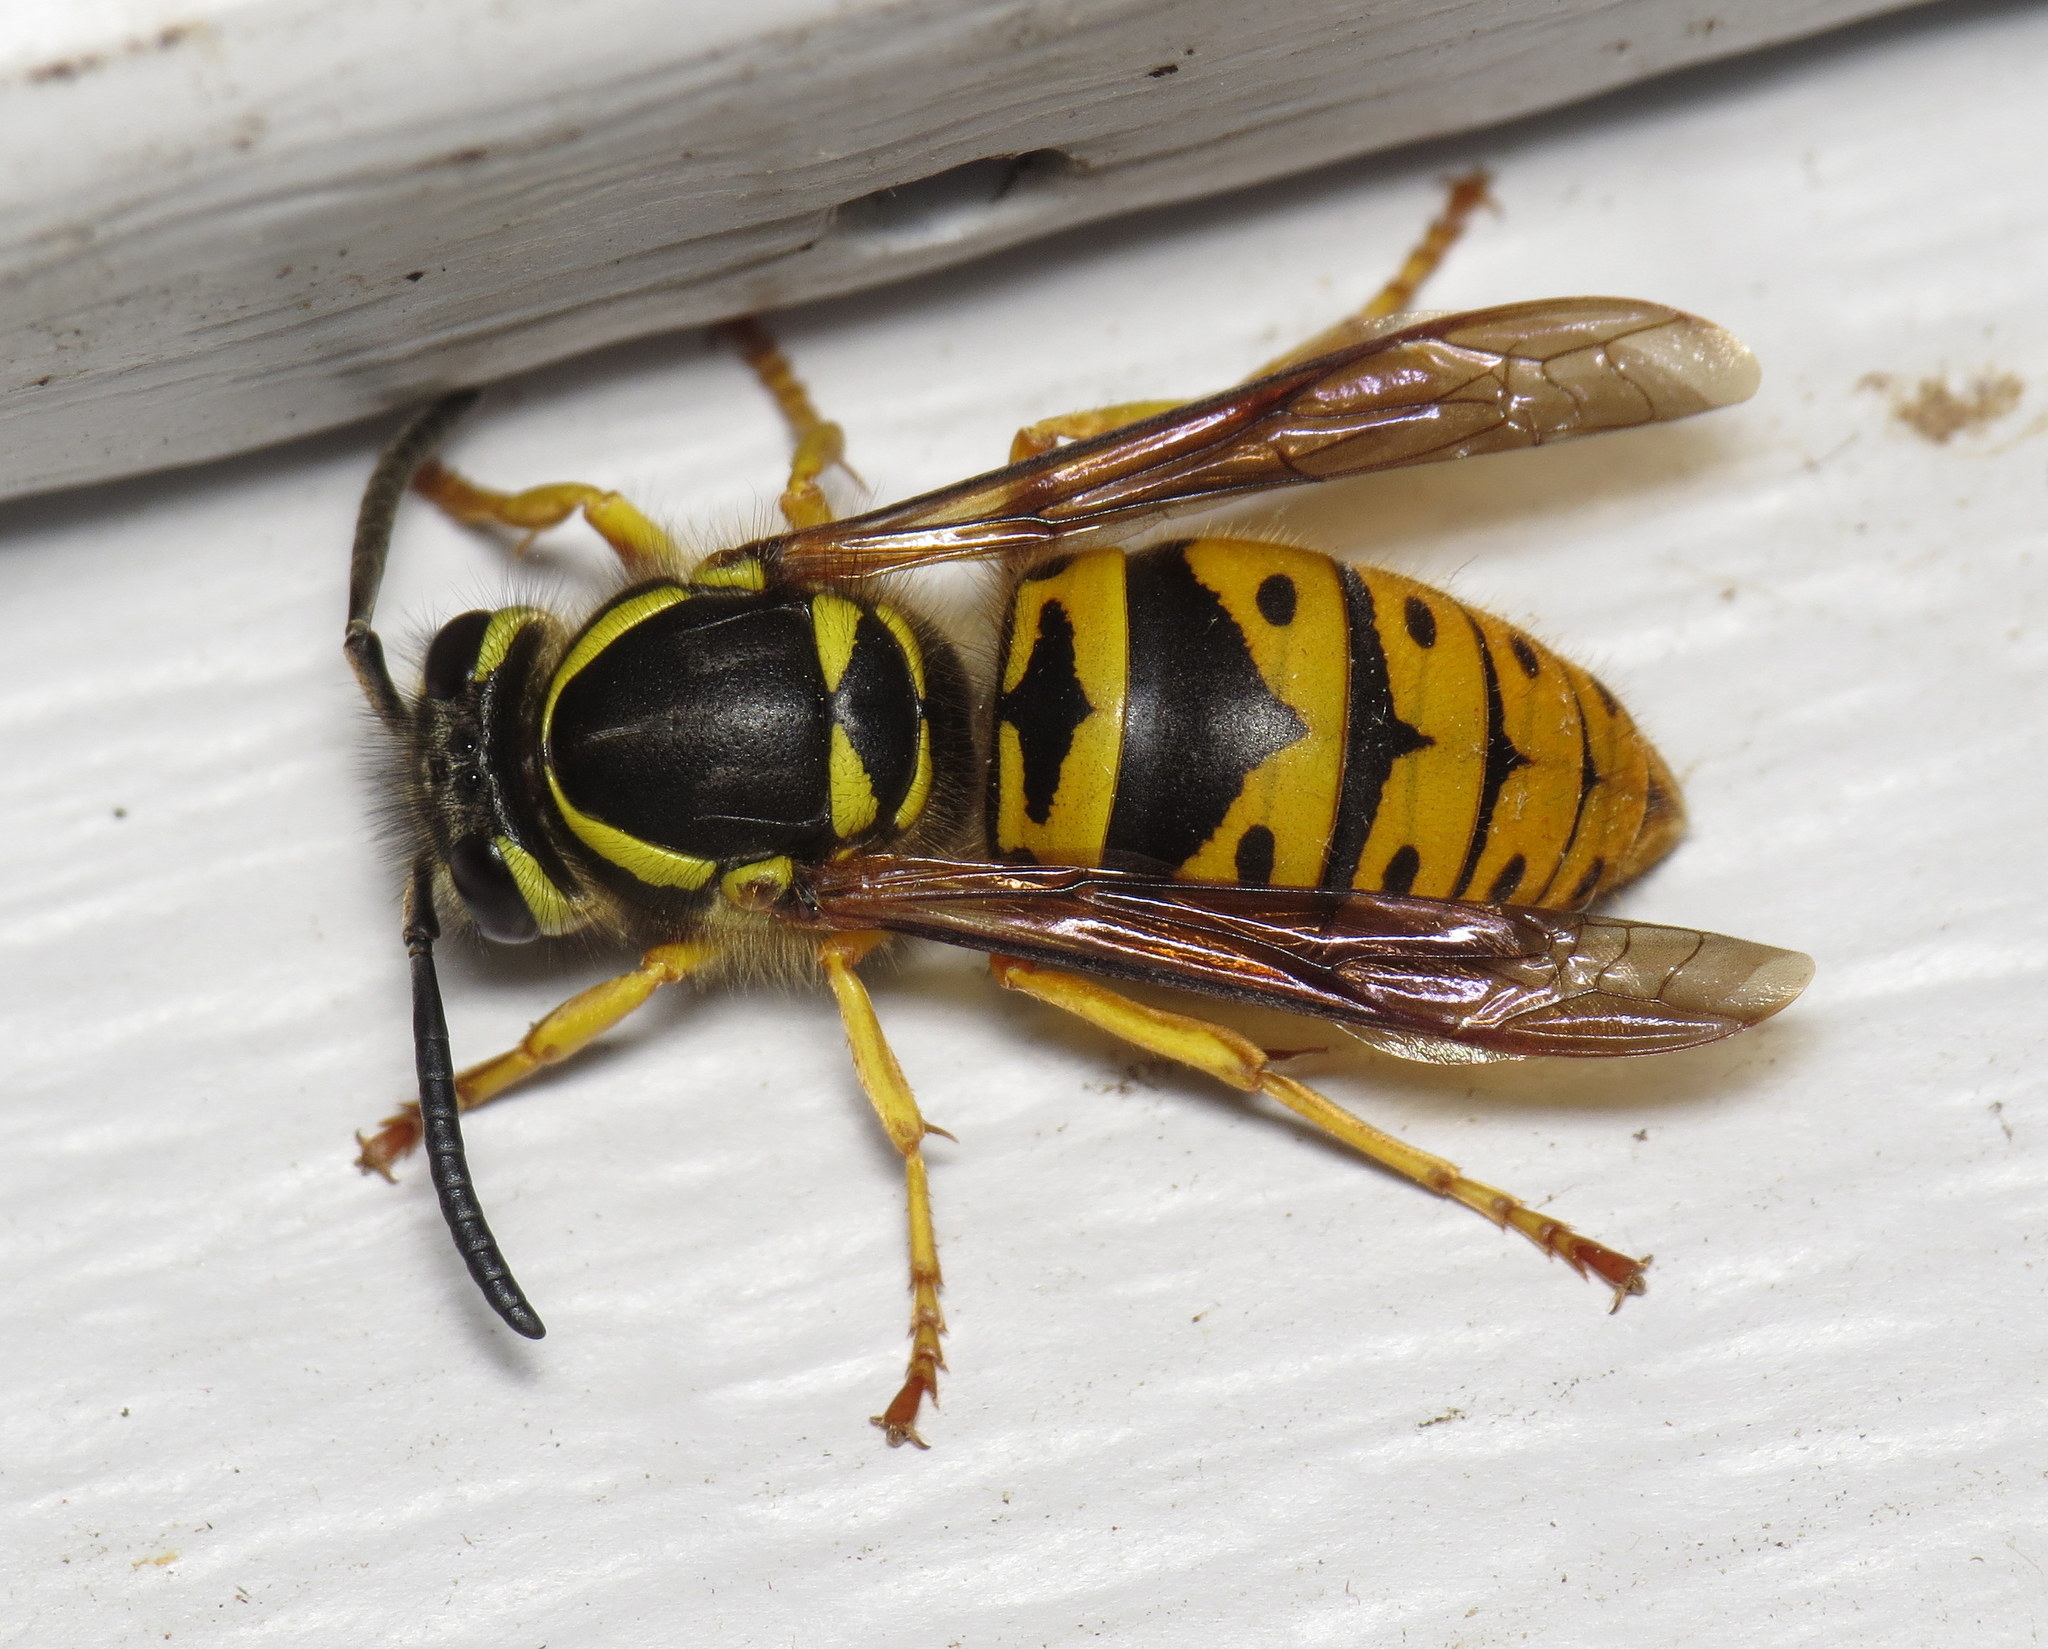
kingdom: Animalia
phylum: Arthropoda
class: Insecta
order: Hymenoptera
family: Vespidae
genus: Vespula
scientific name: Vespula maculifrons
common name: Eastern yellowjacket
